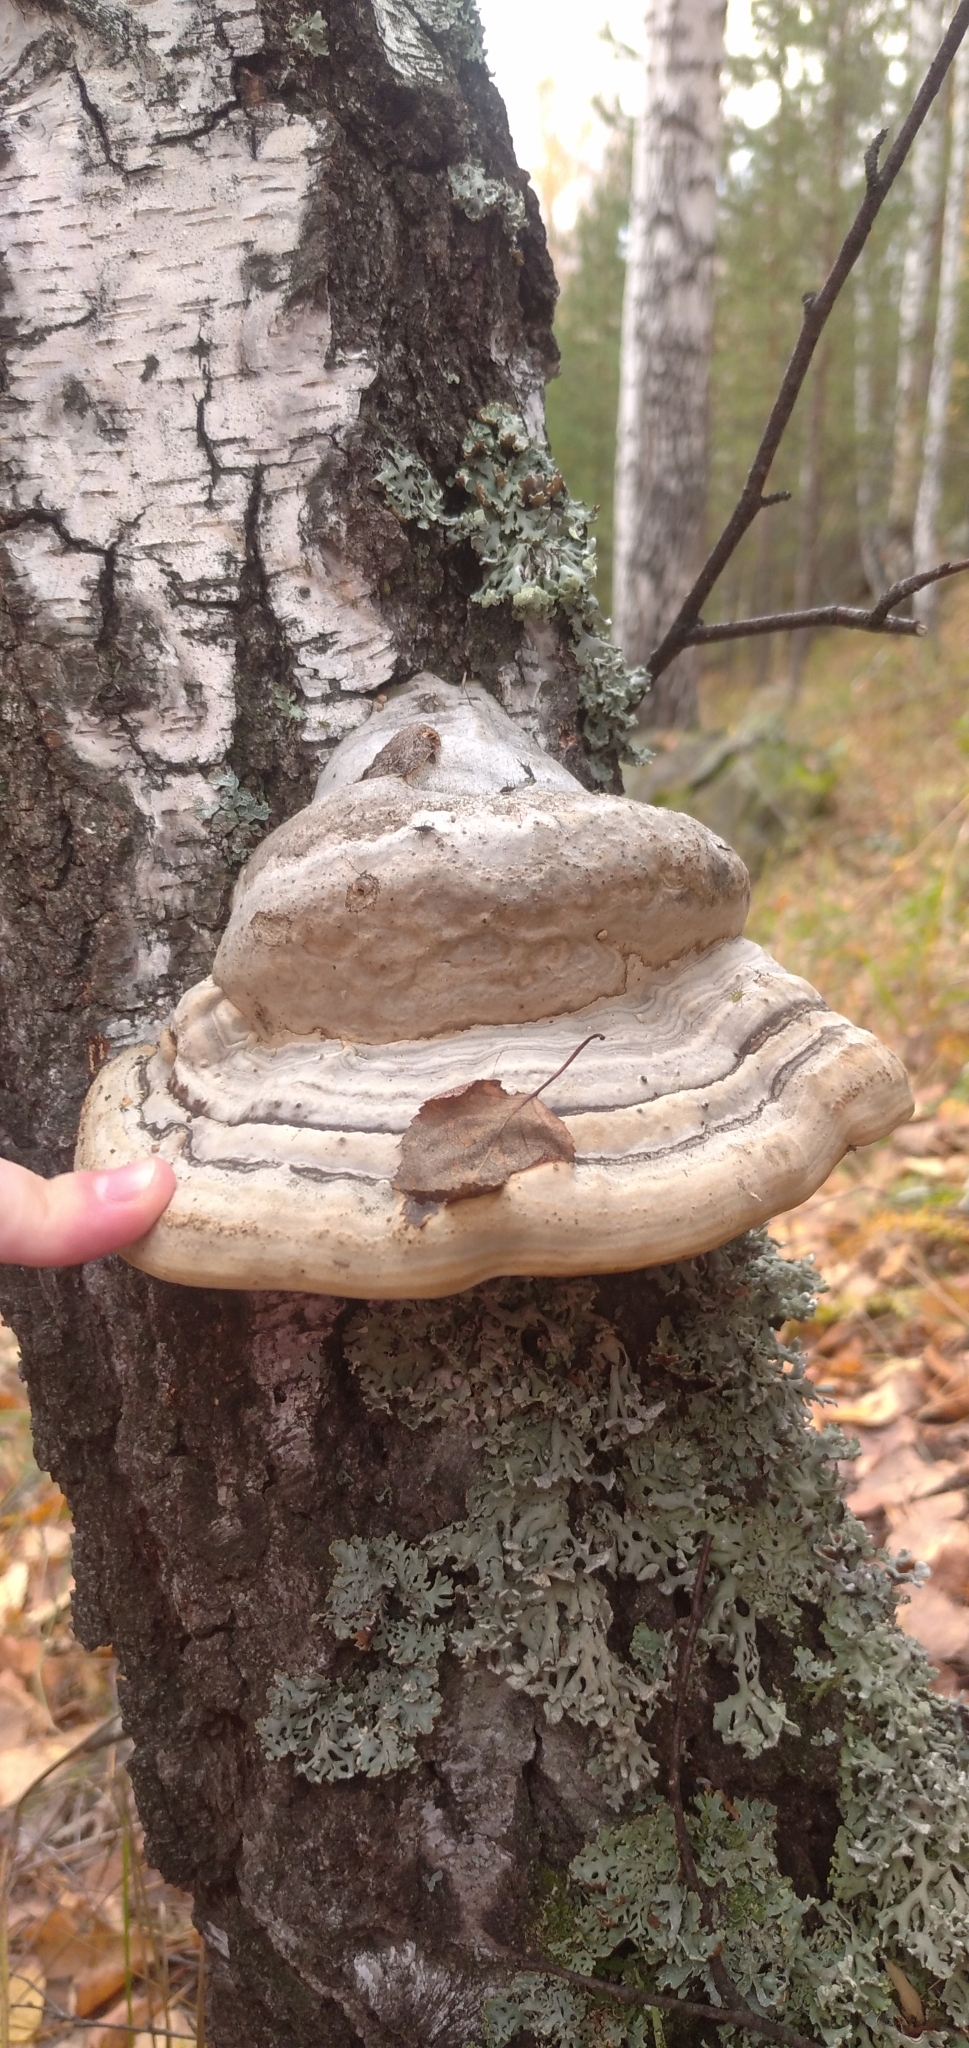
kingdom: Fungi
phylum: Basidiomycota
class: Agaricomycetes
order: Polyporales
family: Polyporaceae
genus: Fomes
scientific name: Fomes fomentarius
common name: Hoof fungus
